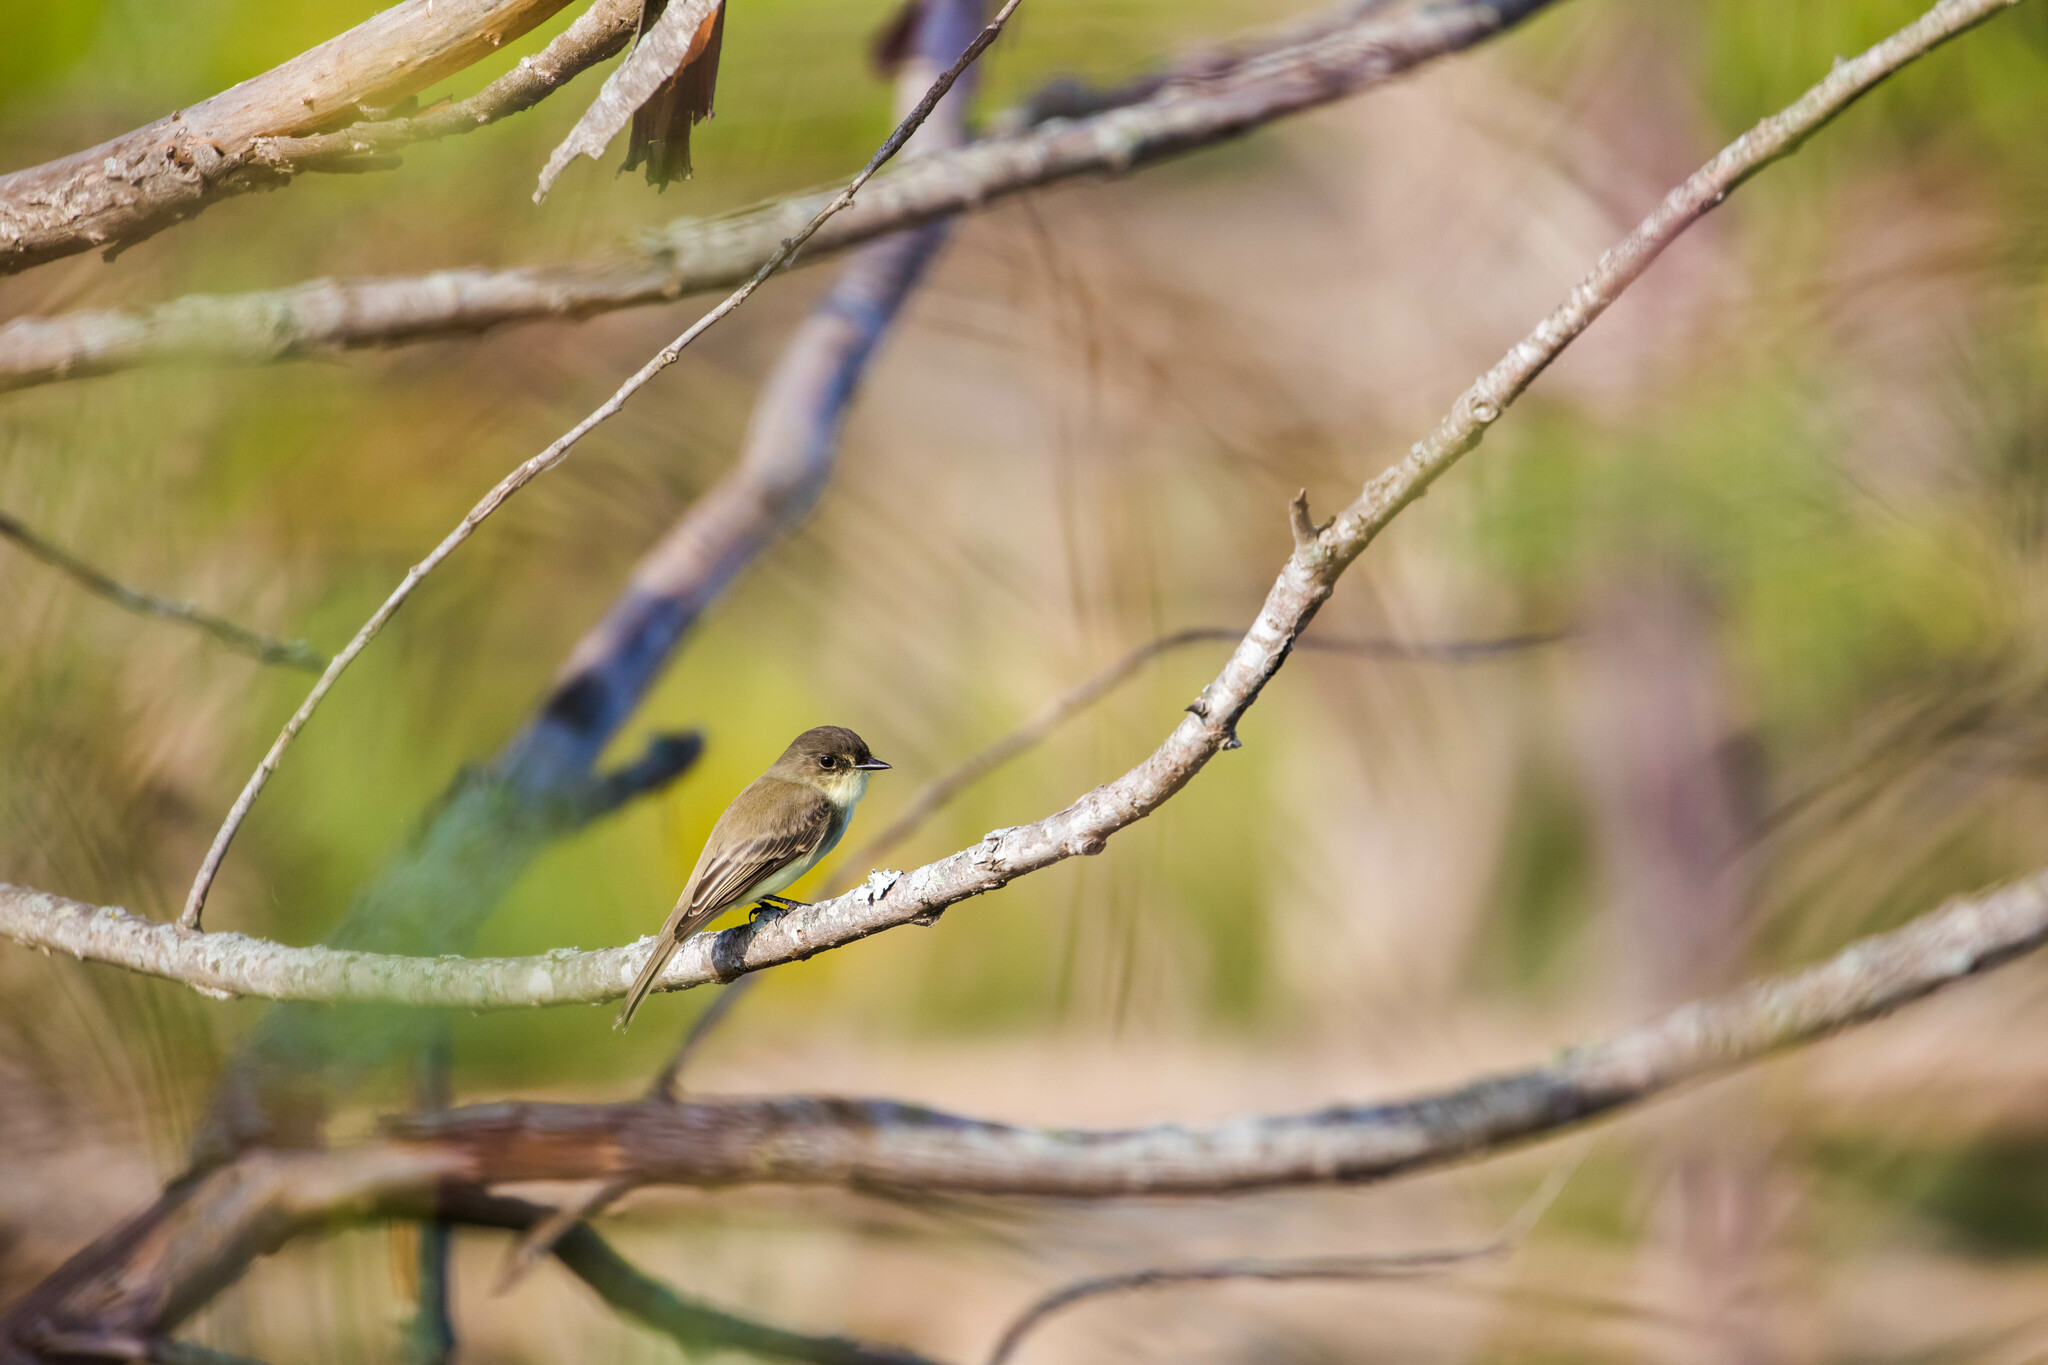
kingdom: Animalia
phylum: Chordata
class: Aves
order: Passeriformes
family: Tyrannidae
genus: Sayornis
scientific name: Sayornis phoebe
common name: Eastern phoebe
